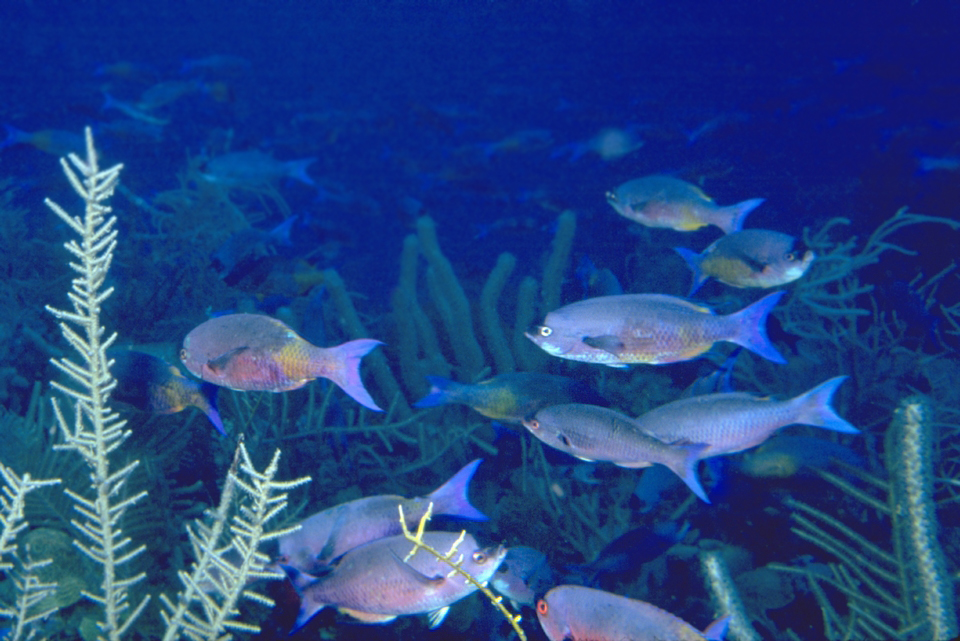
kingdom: Animalia
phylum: Chordata
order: Perciformes
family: Labridae
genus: Bodianus
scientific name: Bodianus
